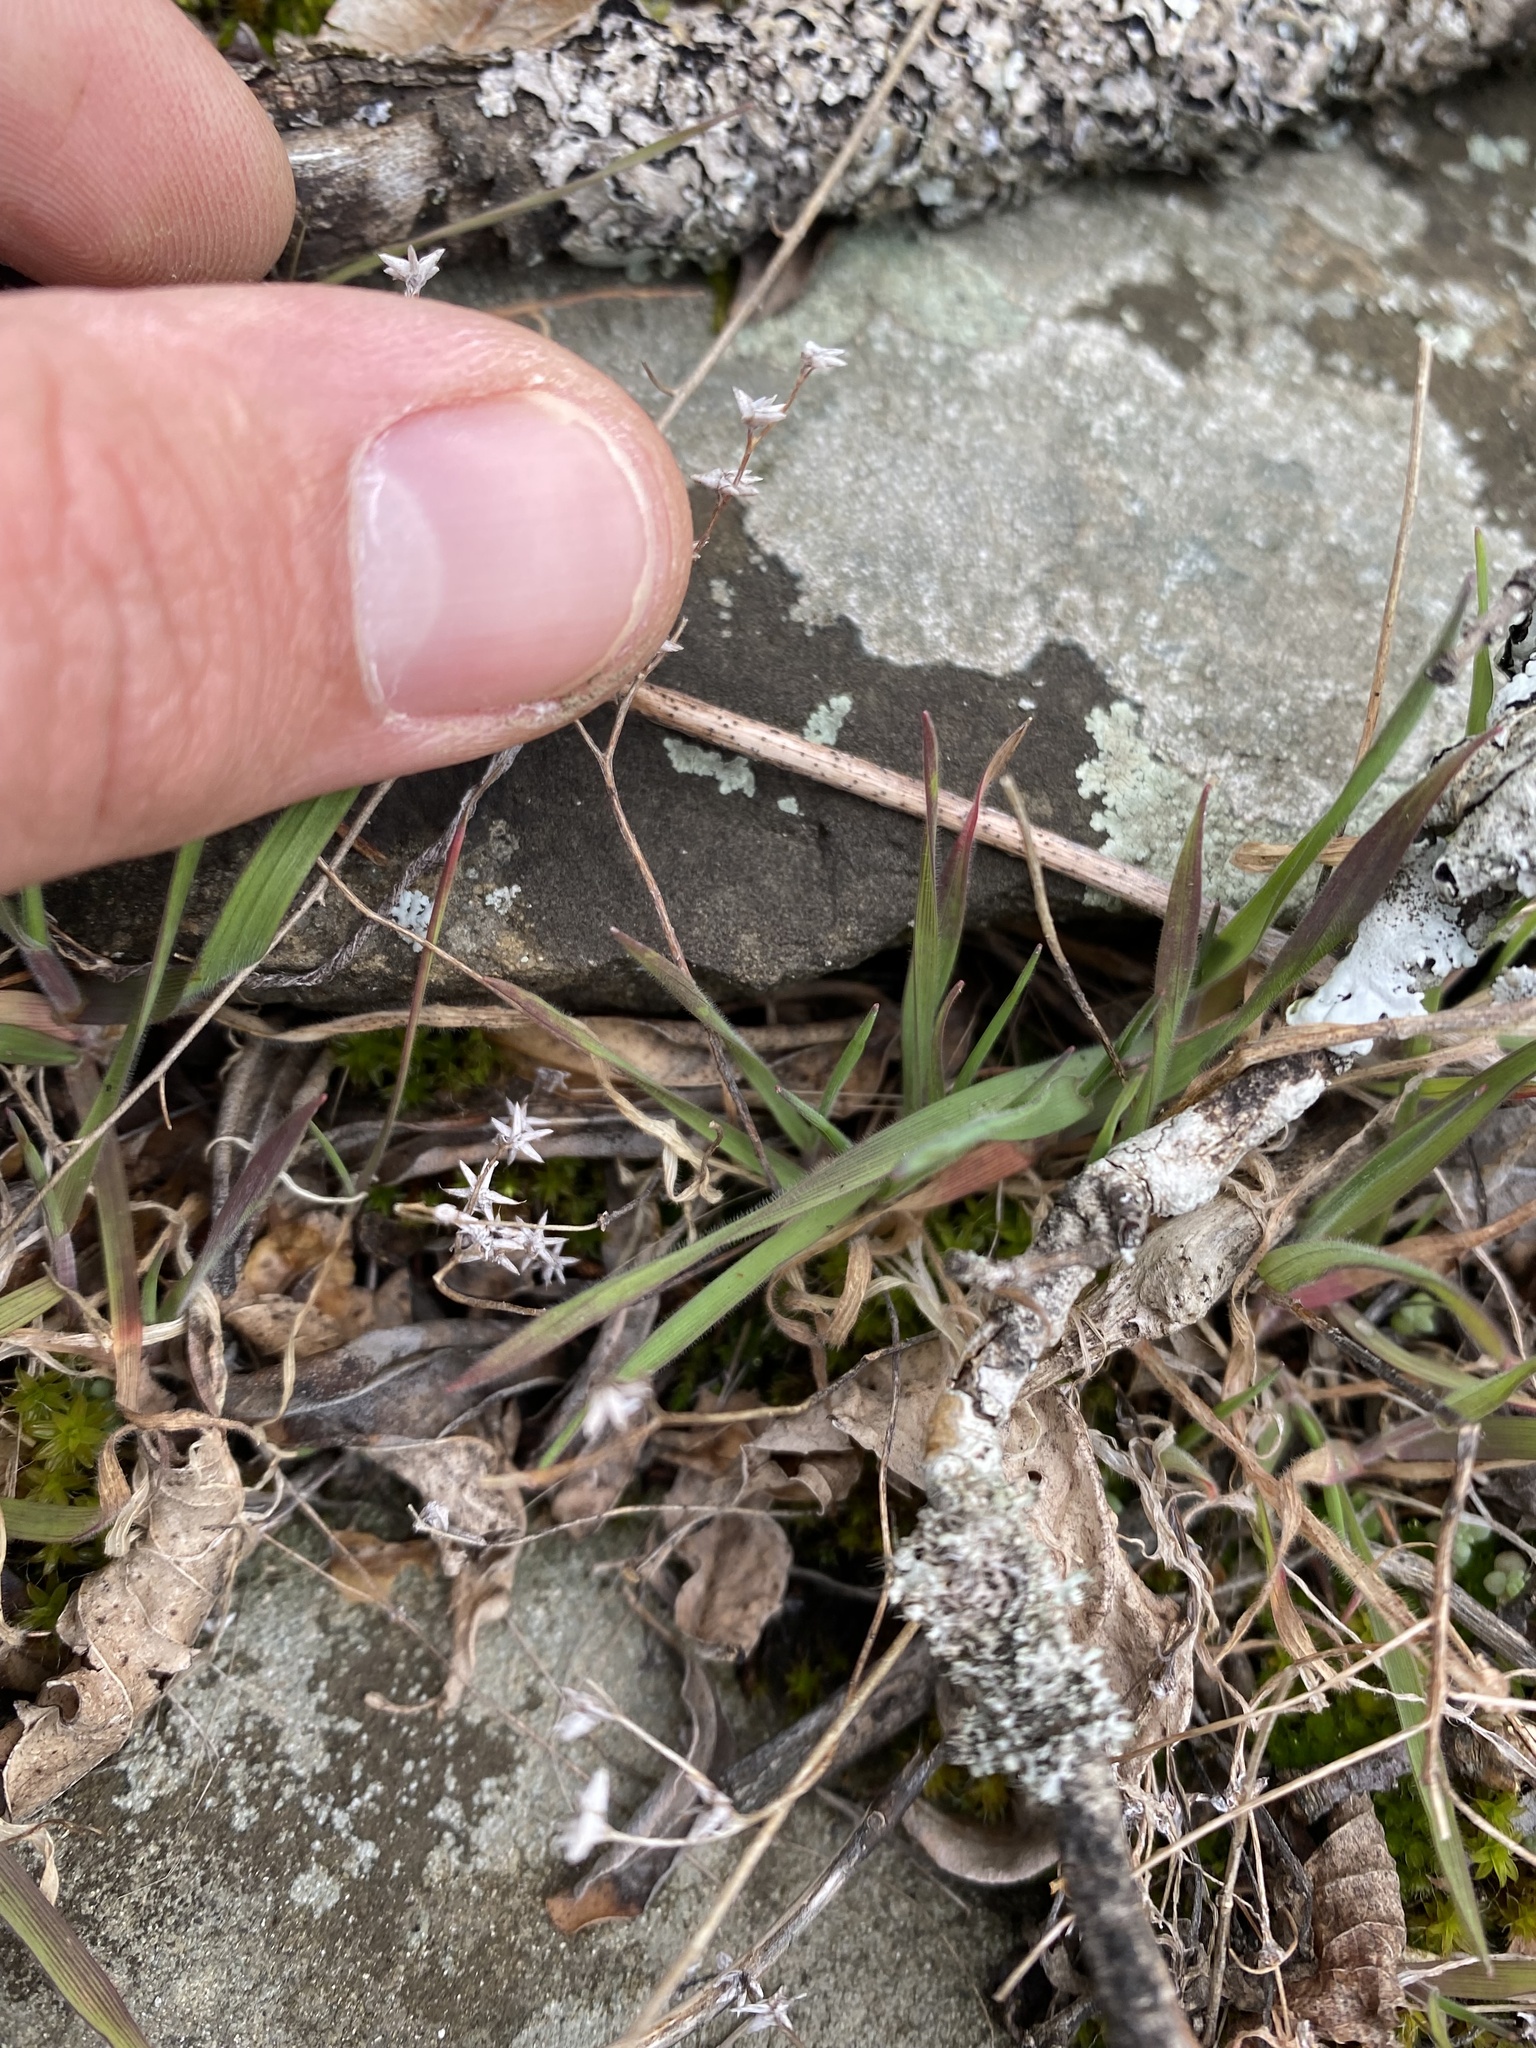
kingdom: Plantae
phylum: Tracheophyta
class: Magnoliopsida
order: Saxifragales
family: Crassulaceae
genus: Sedum
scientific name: Sedum hispanicum
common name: Spanish stonecrop
